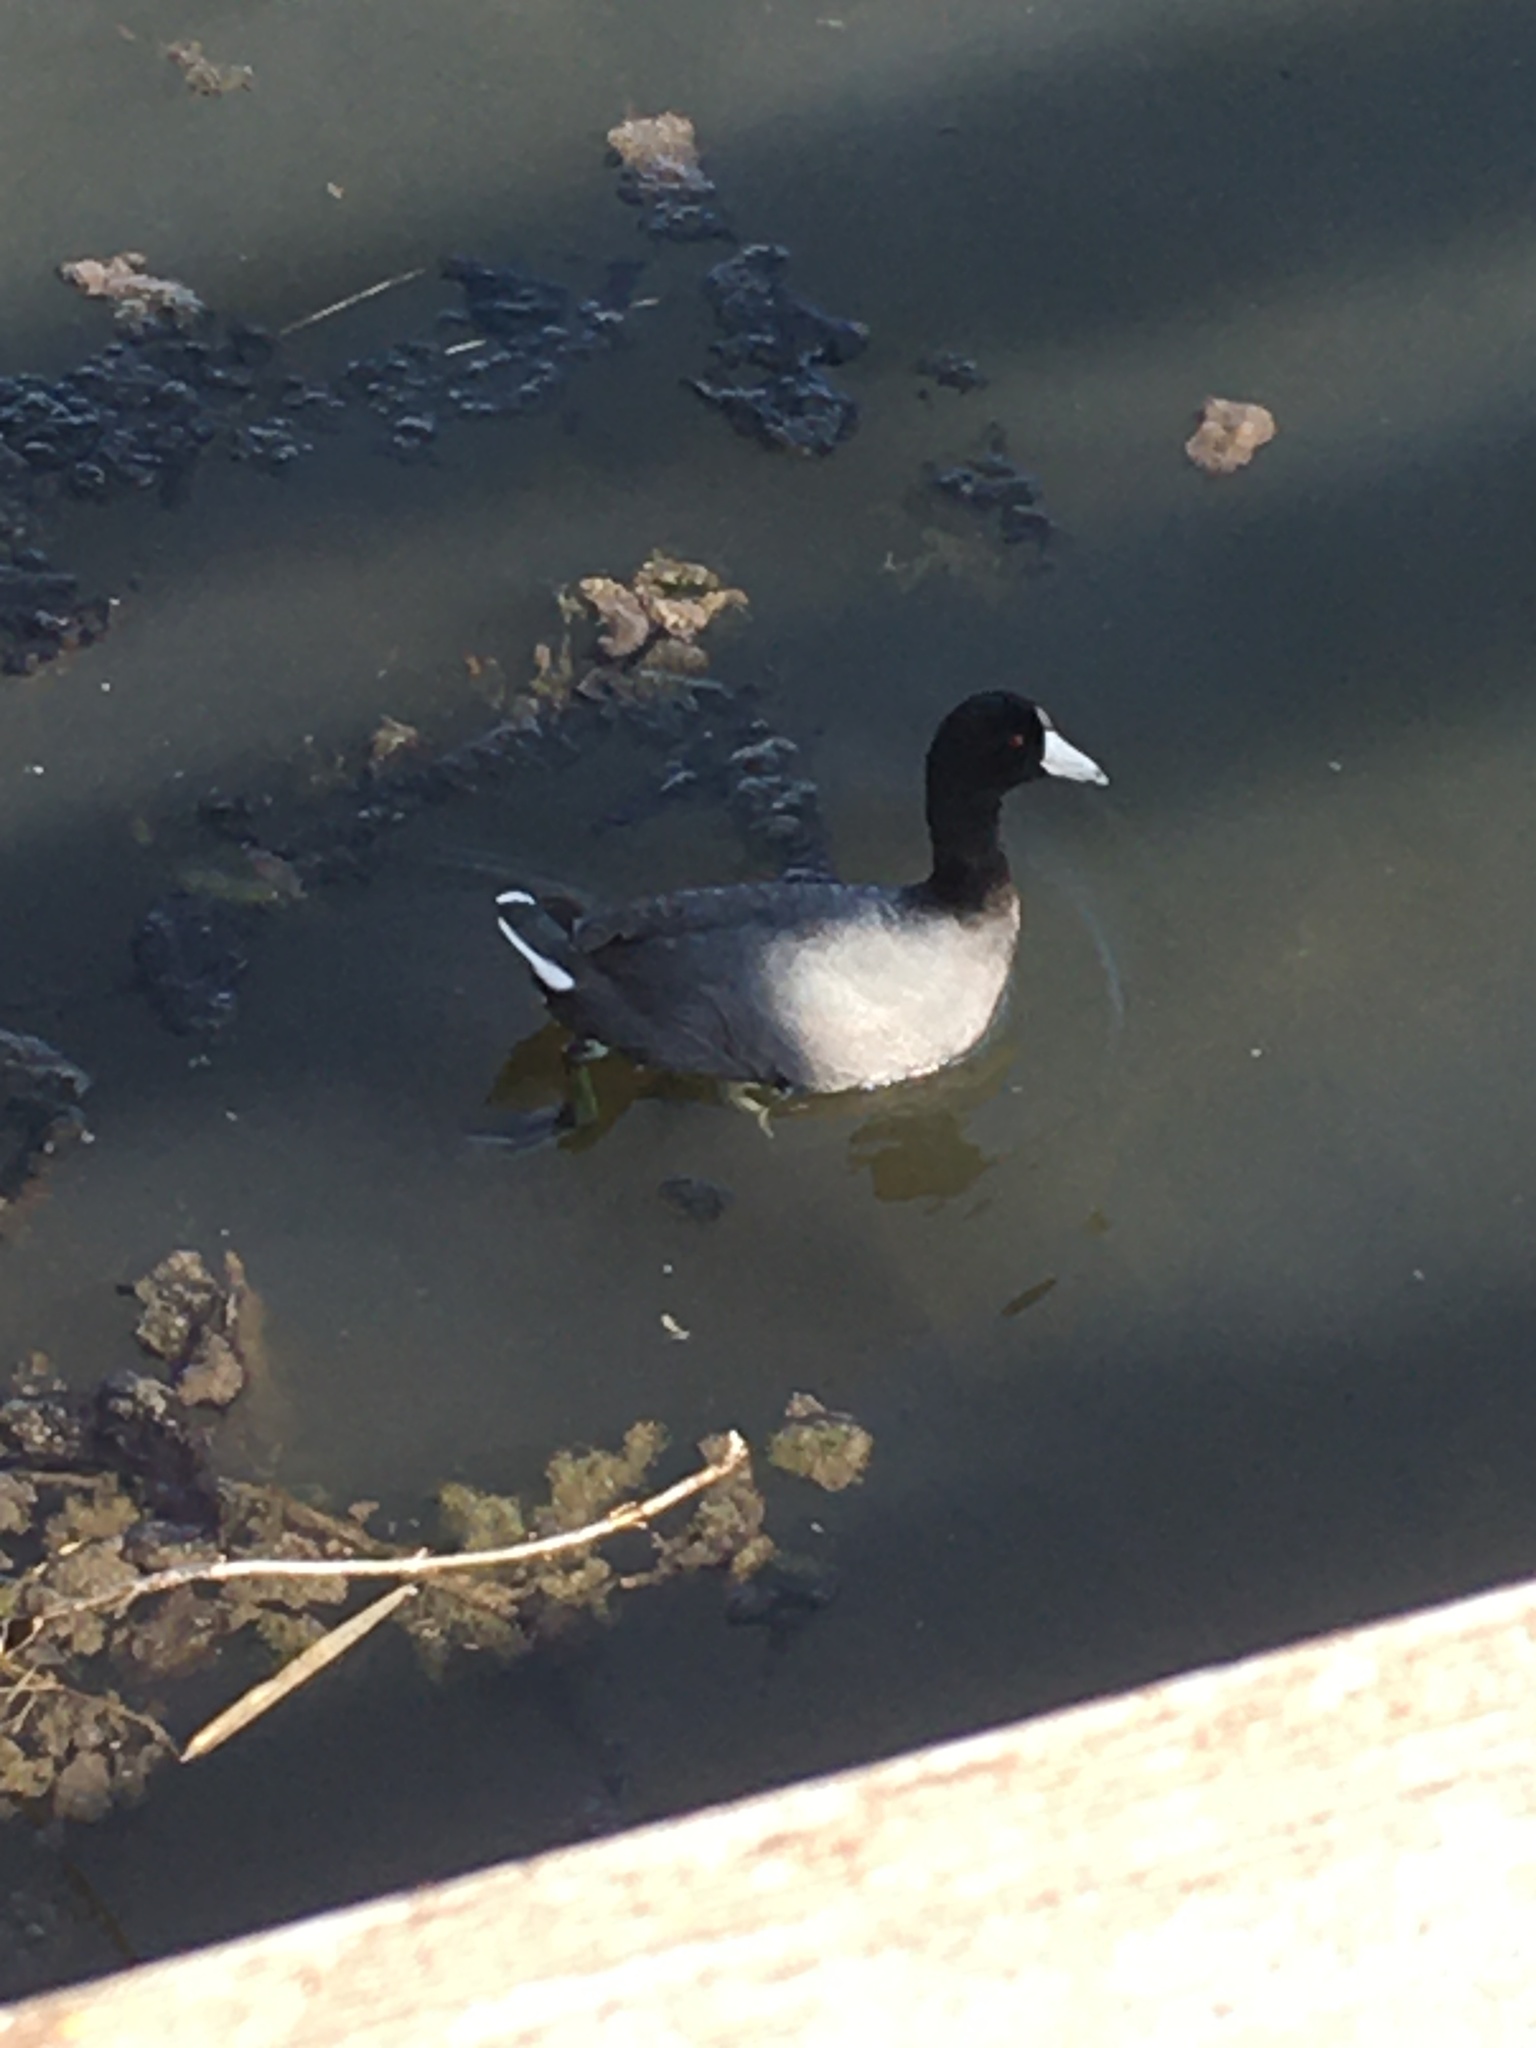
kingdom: Animalia
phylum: Chordata
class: Aves
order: Gruiformes
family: Rallidae
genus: Fulica
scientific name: Fulica americana
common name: American coot
